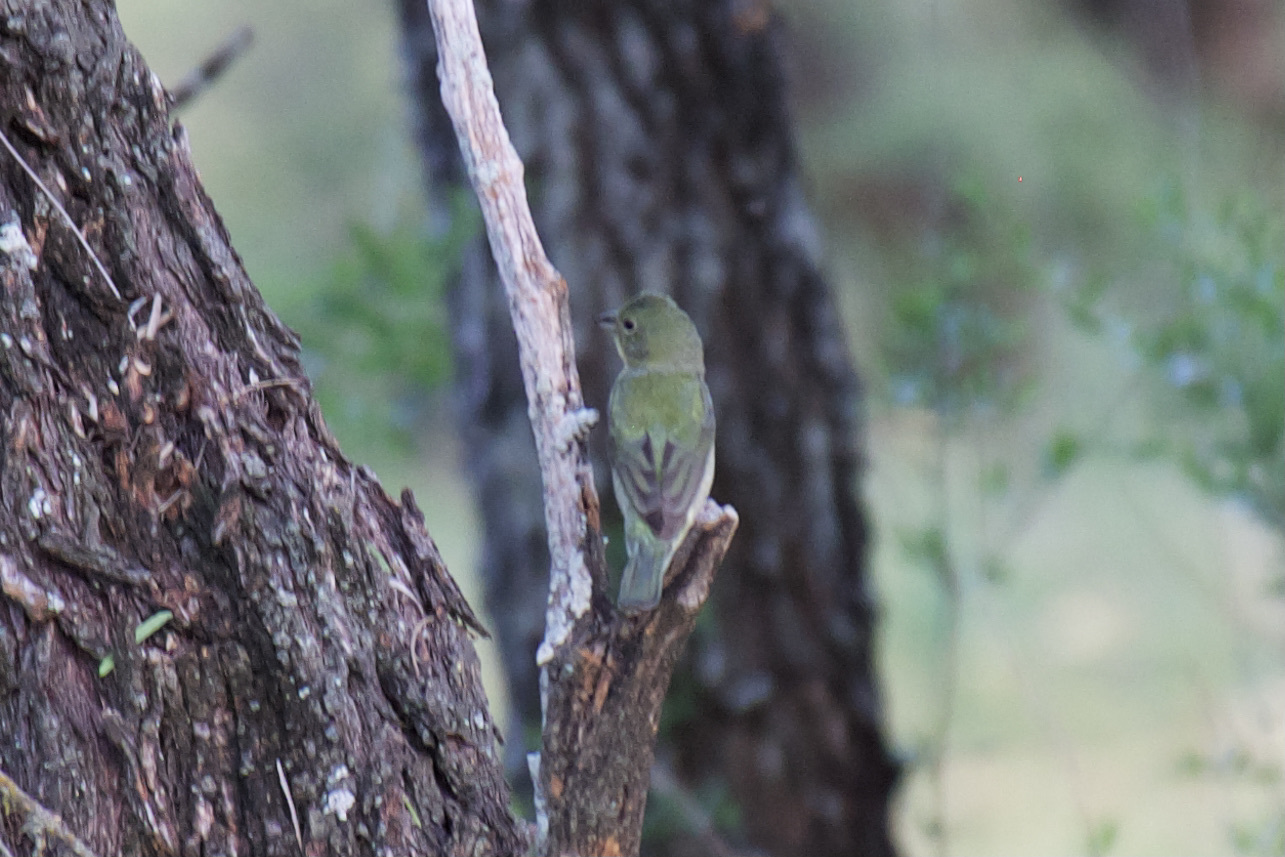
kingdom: Animalia
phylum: Chordata
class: Aves
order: Passeriformes
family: Cardinalidae
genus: Passerina
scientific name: Passerina ciris
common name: Painted bunting
